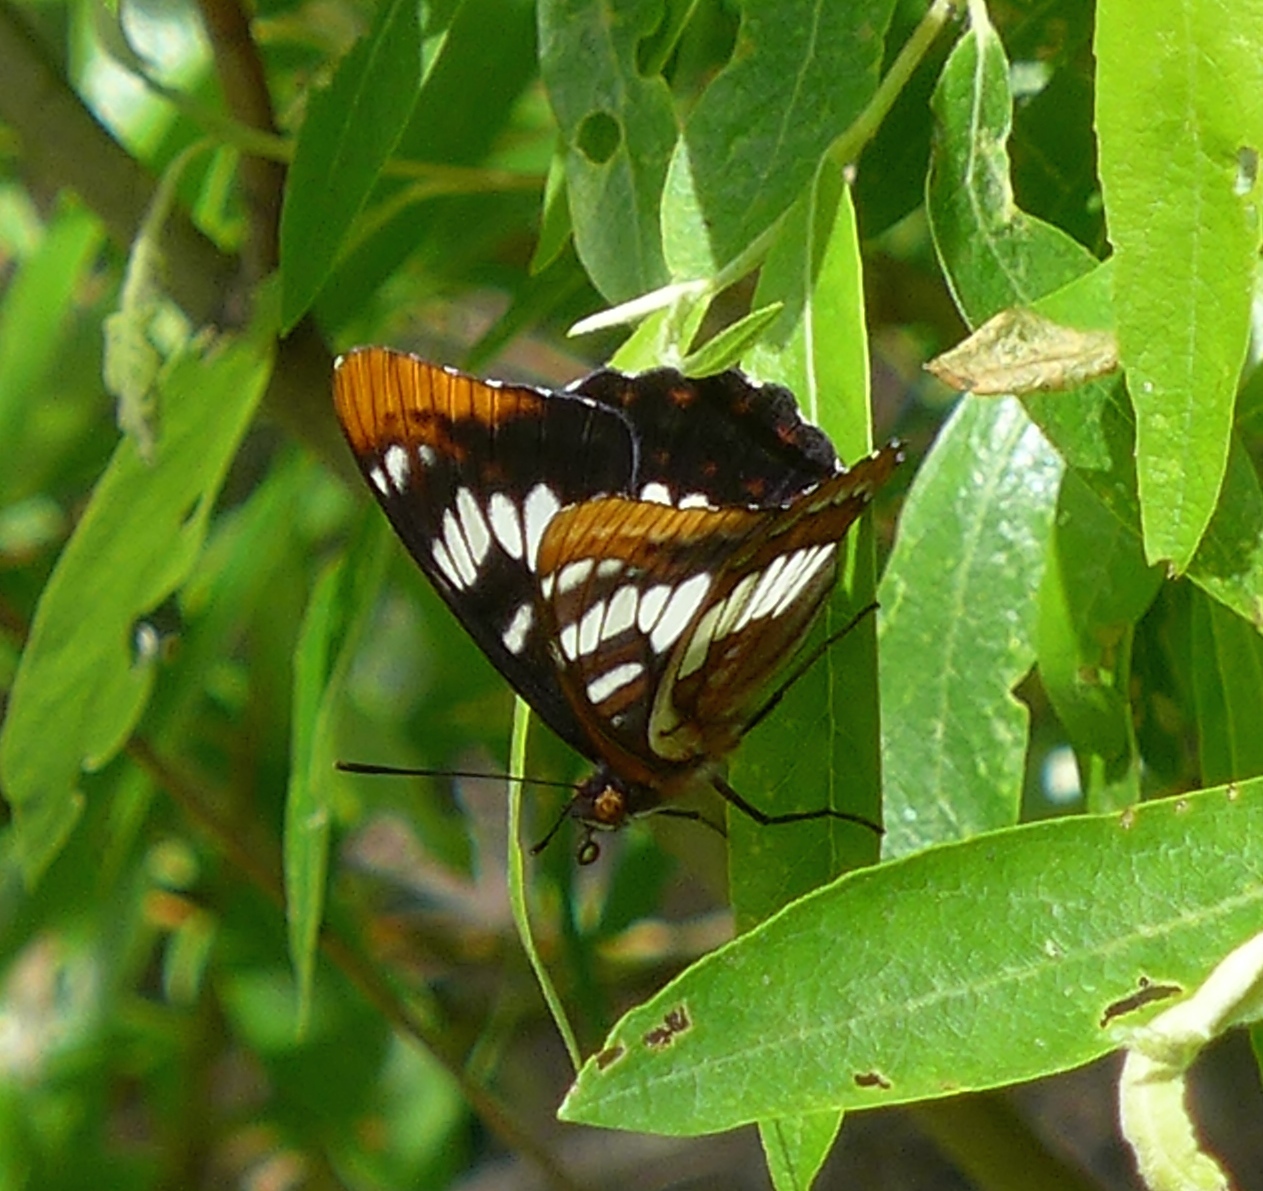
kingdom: Animalia
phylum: Arthropoda
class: Insecta
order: Lepidoptera
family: Nymphalidae
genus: Limenitis
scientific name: Limenitis lorquini
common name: Lorquin's admiral
